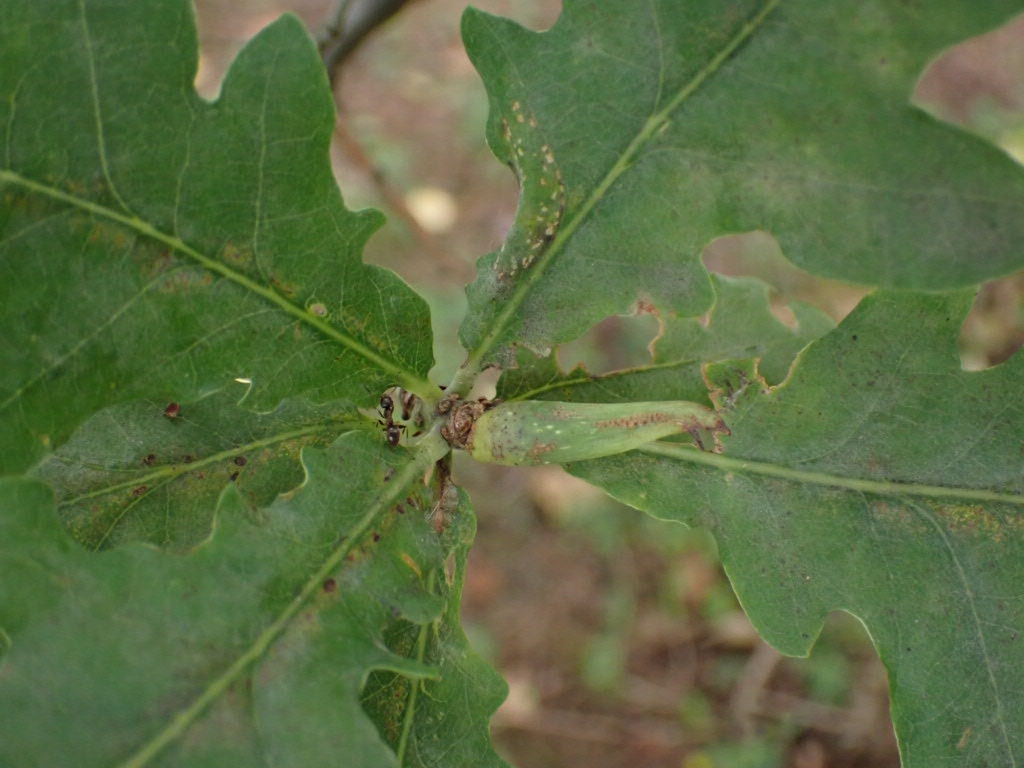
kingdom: Animalia
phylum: Arthropoda
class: Insecta
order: Hymenoptera
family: Cynipidae
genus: Andricus
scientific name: Andricus aries
